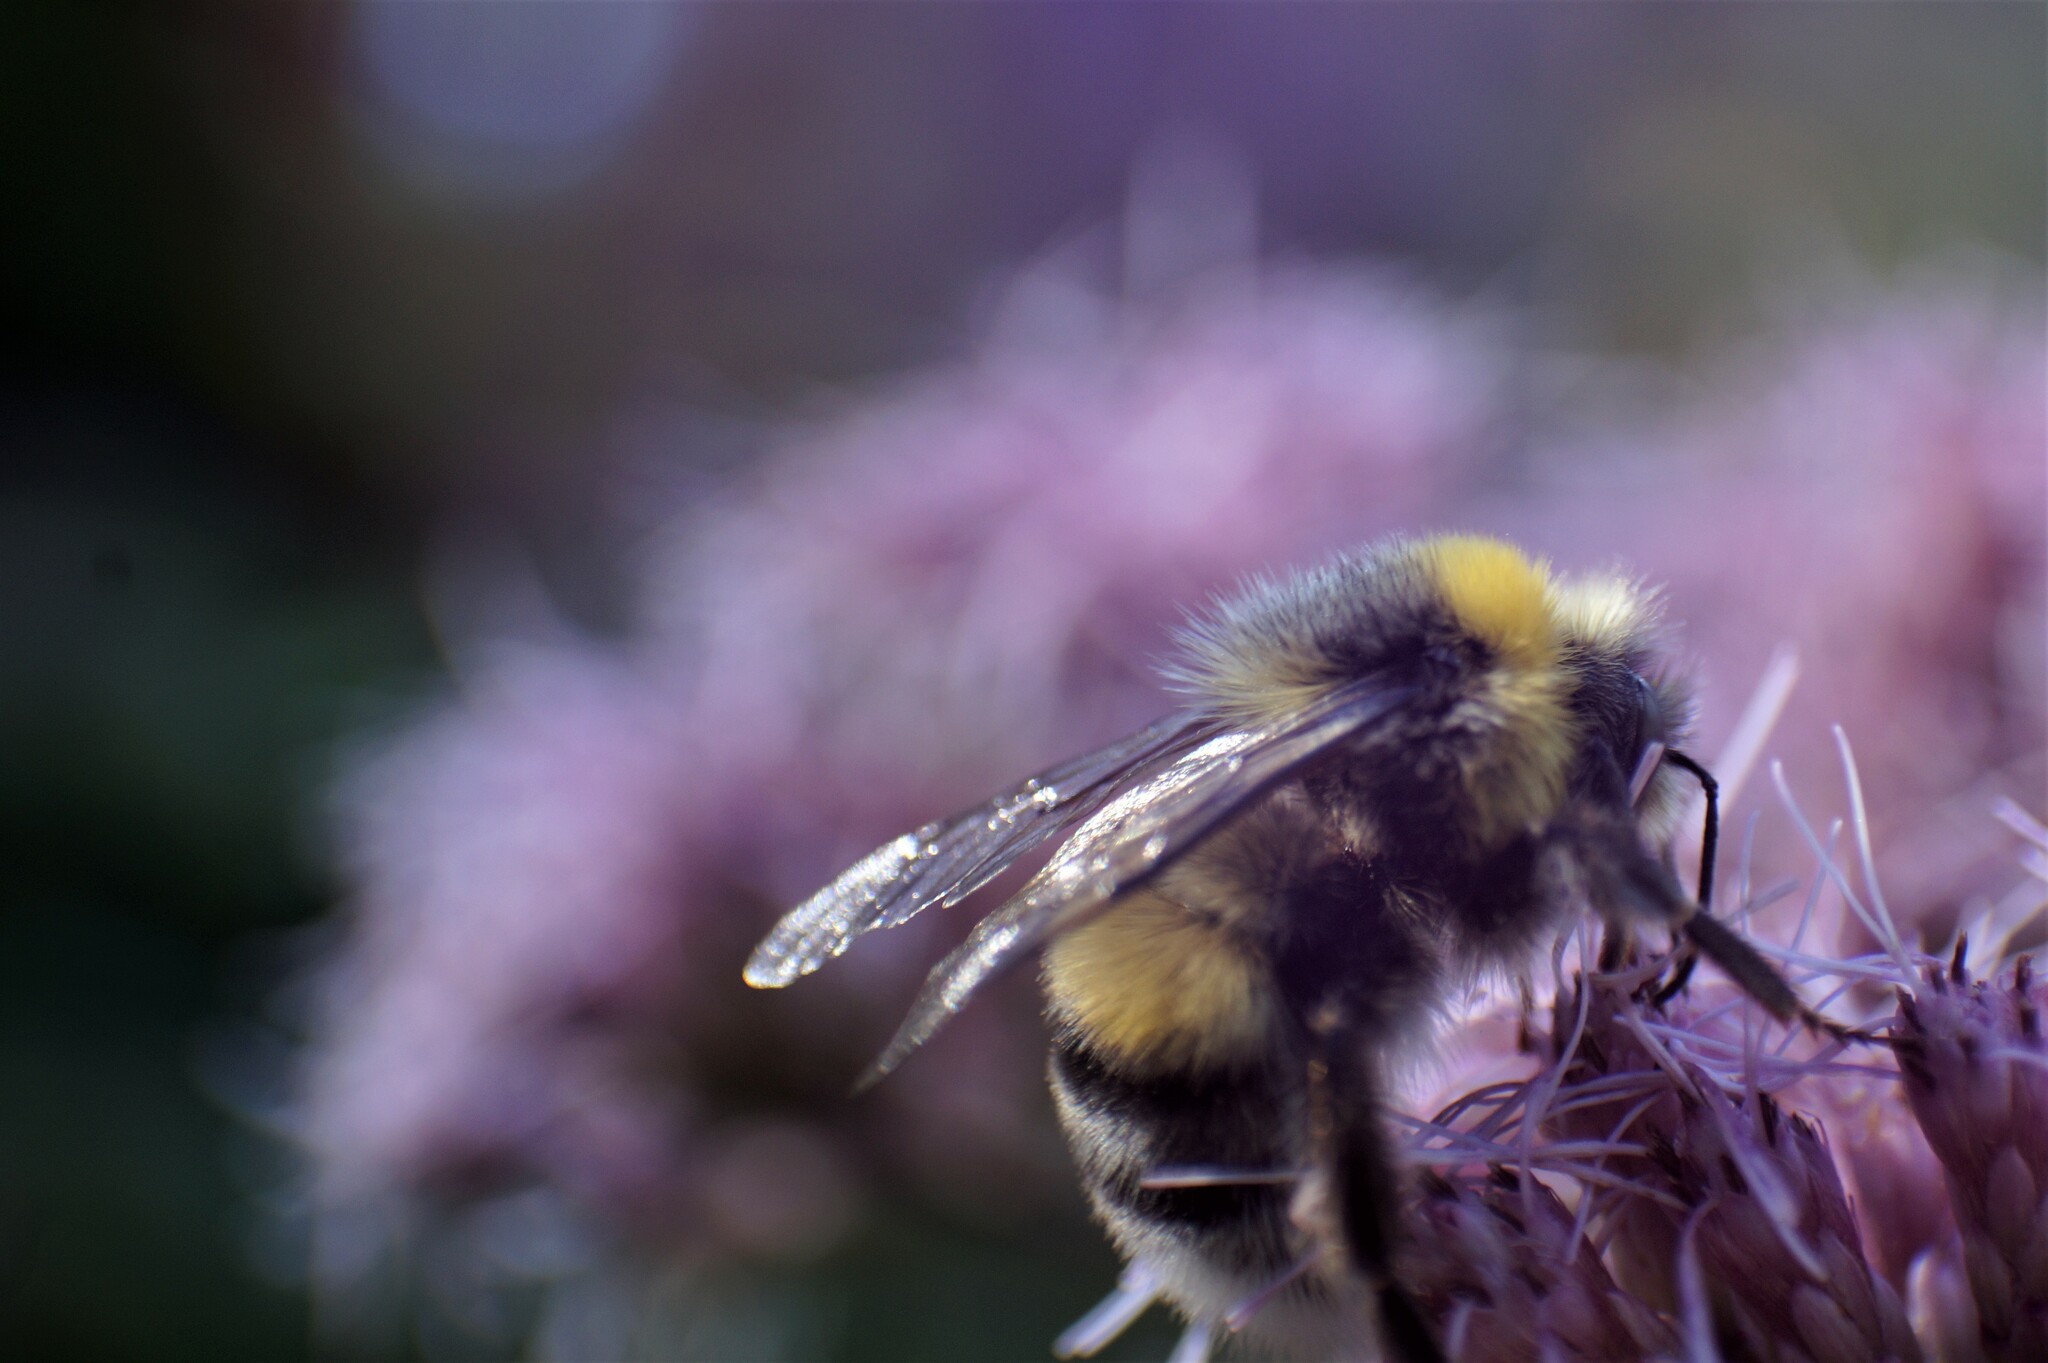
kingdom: Animalia
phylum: Arthropoda
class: Insecta
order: Hymenoptera
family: Apidae
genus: Bombus
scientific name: Bombus lucorum
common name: White-tailed bumblebee
